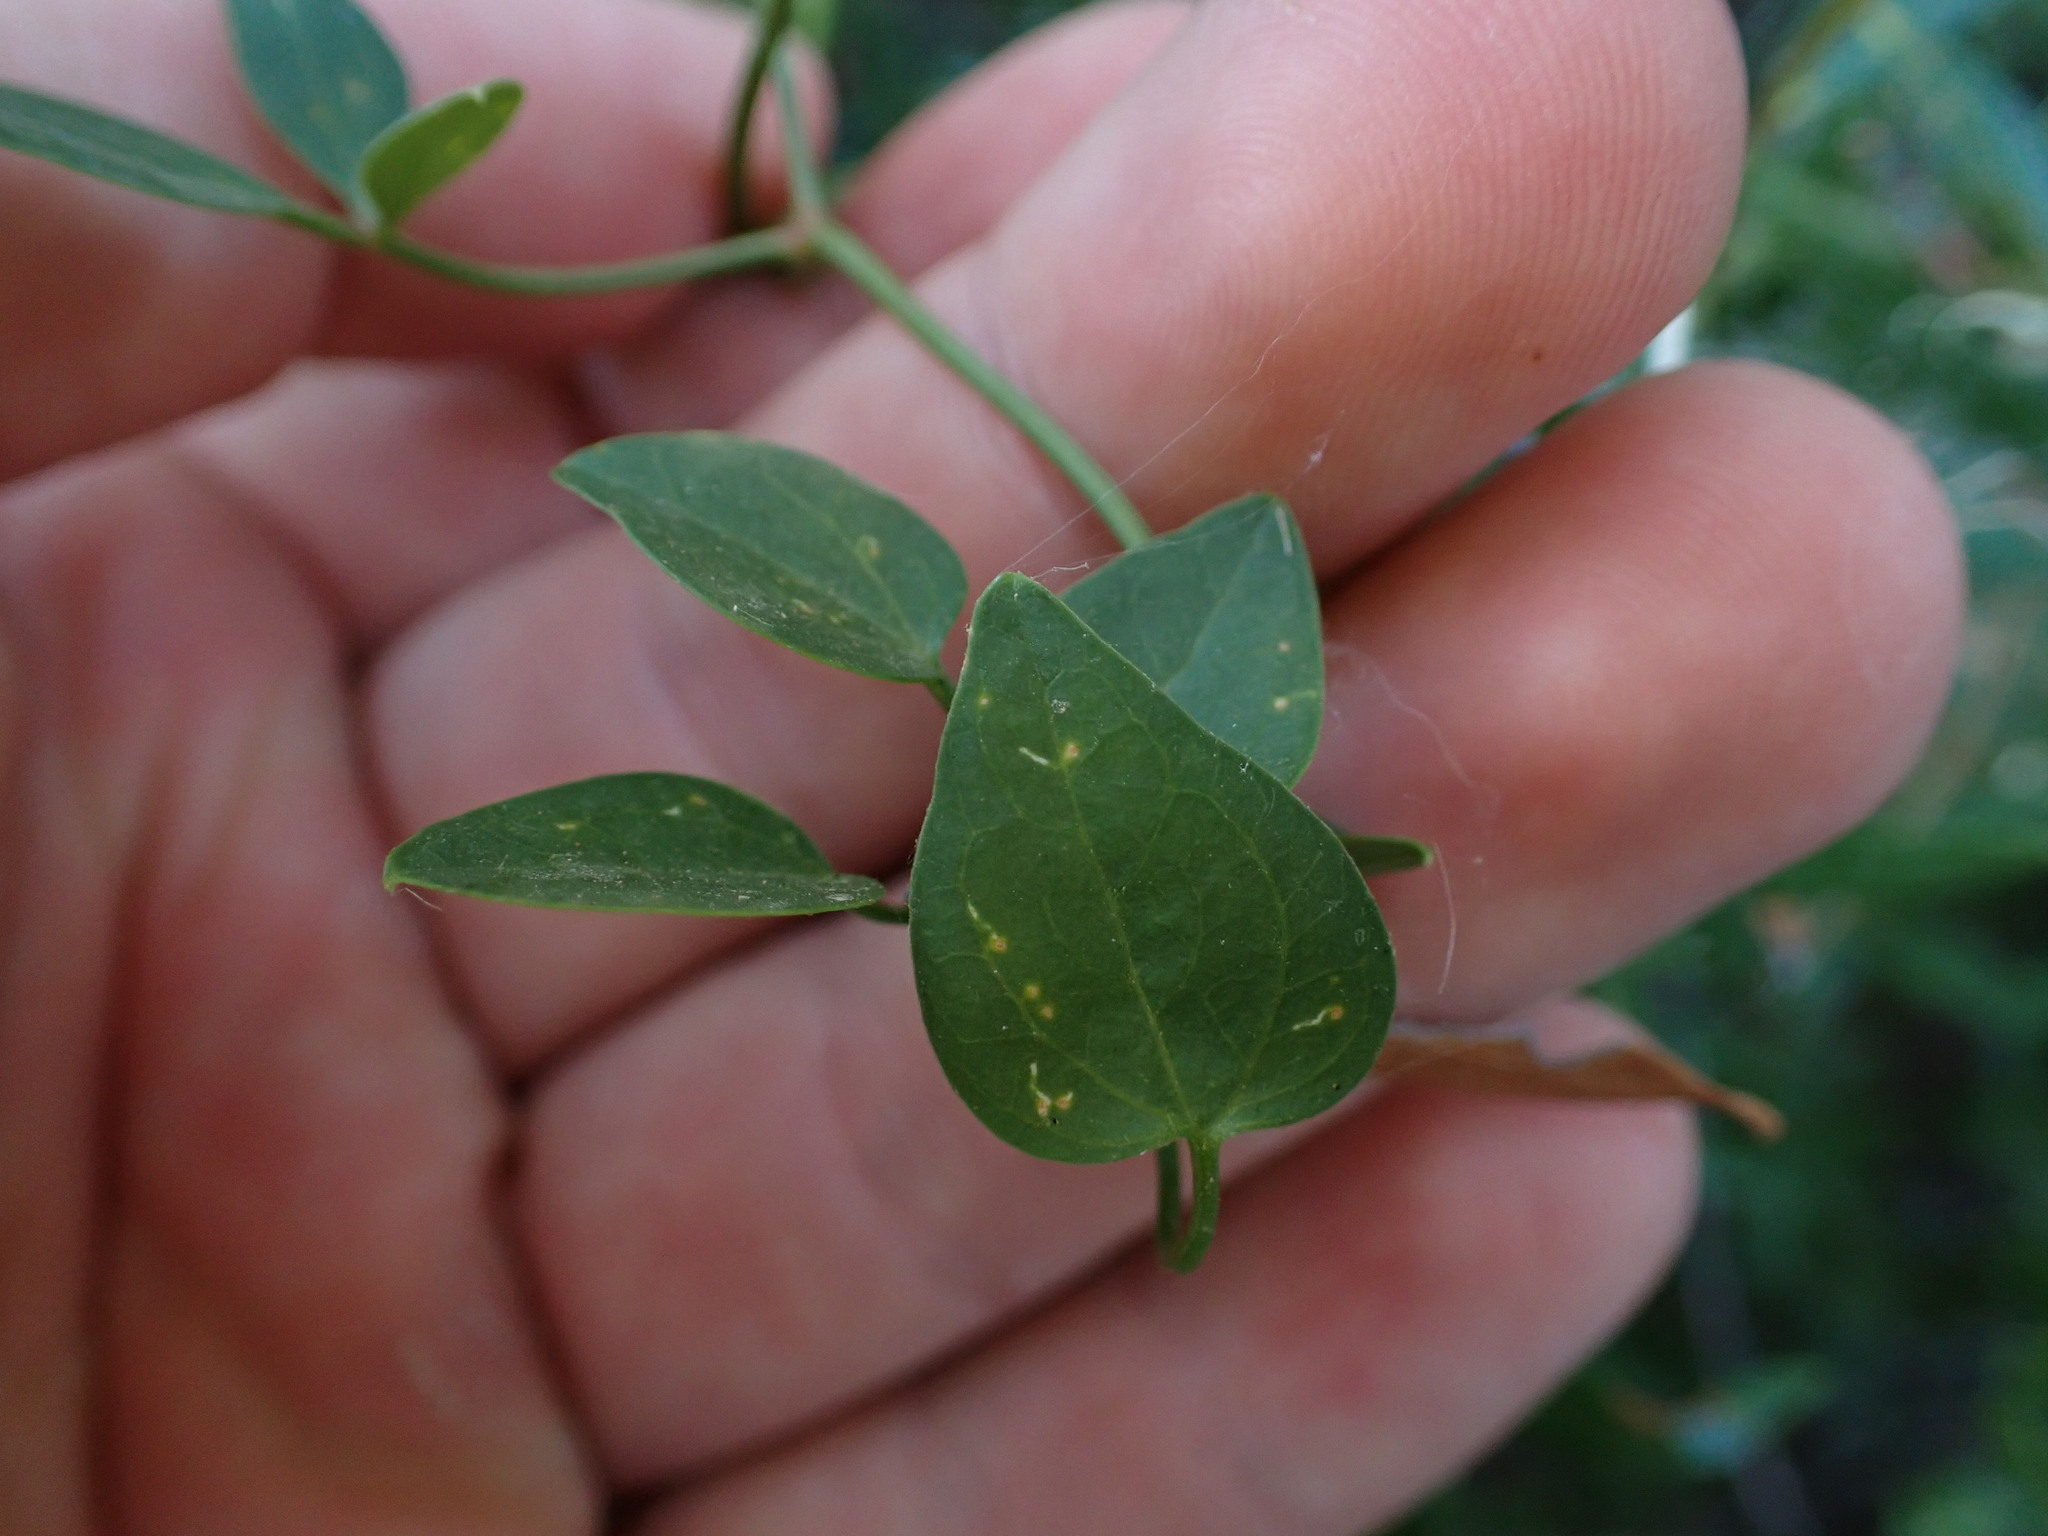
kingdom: Plantae
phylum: Tracheophyta
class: Magnoliopsida
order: Ranunculales
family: Ranunculaceae
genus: Clematis
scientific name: Clematis flammula
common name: Virgin's-bower
